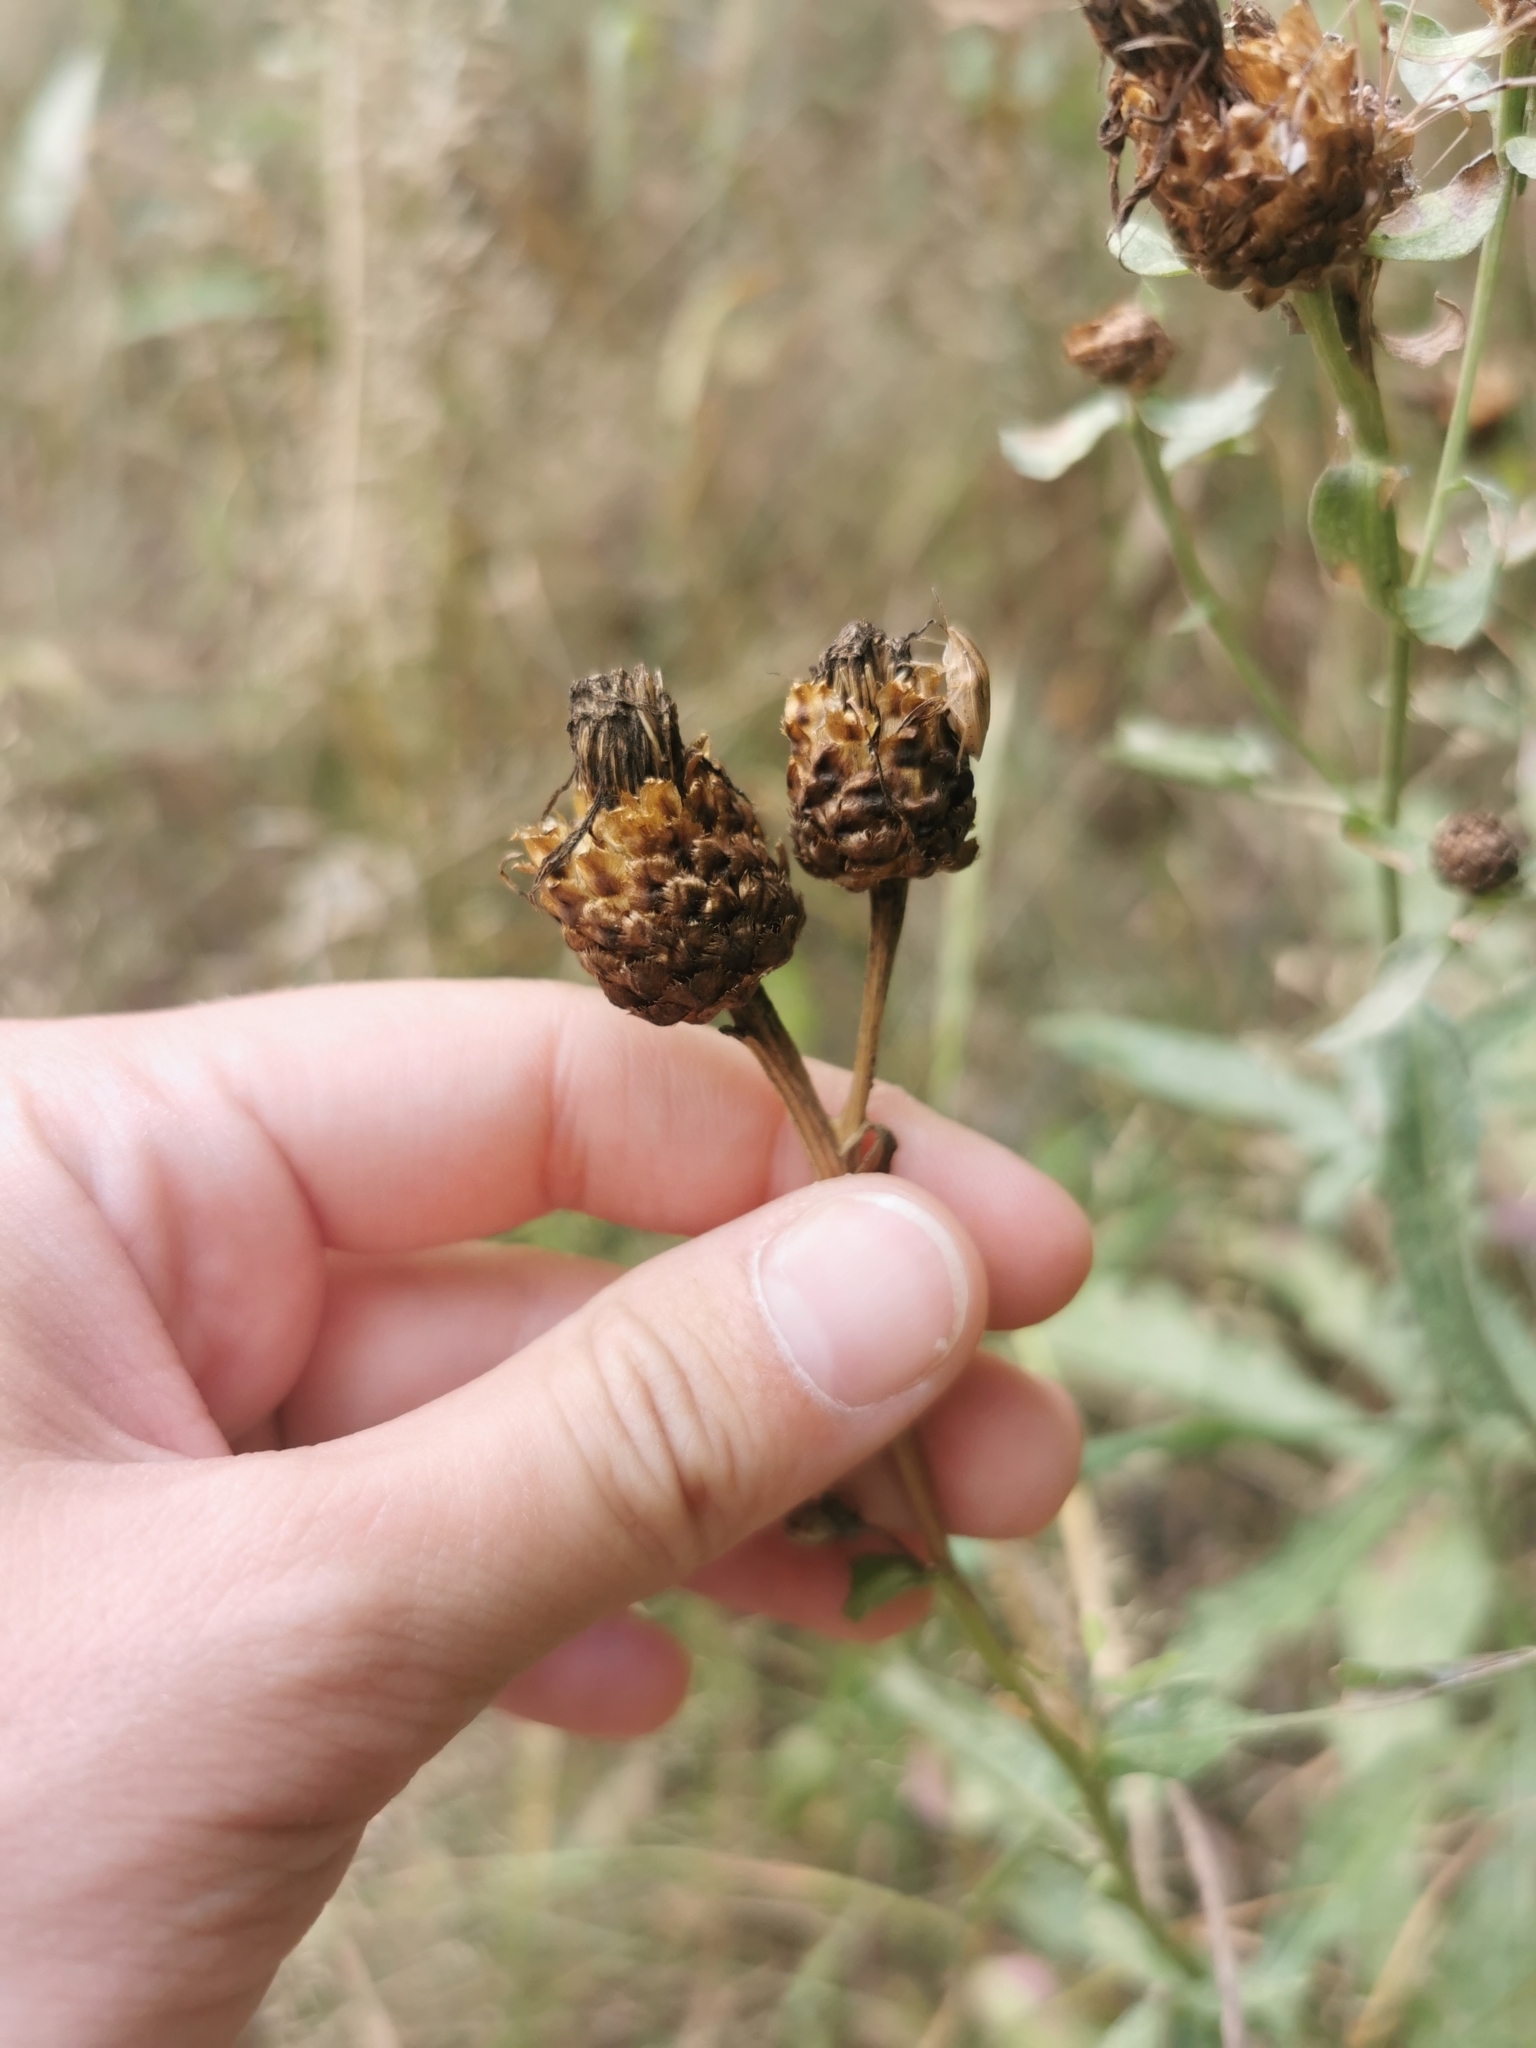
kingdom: Plantae
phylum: Tracheophyta
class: Magnoliopsida
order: Asterales
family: Asteraceae
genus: Centaurea
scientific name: Centaurea jacea
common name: Brown knapweed
